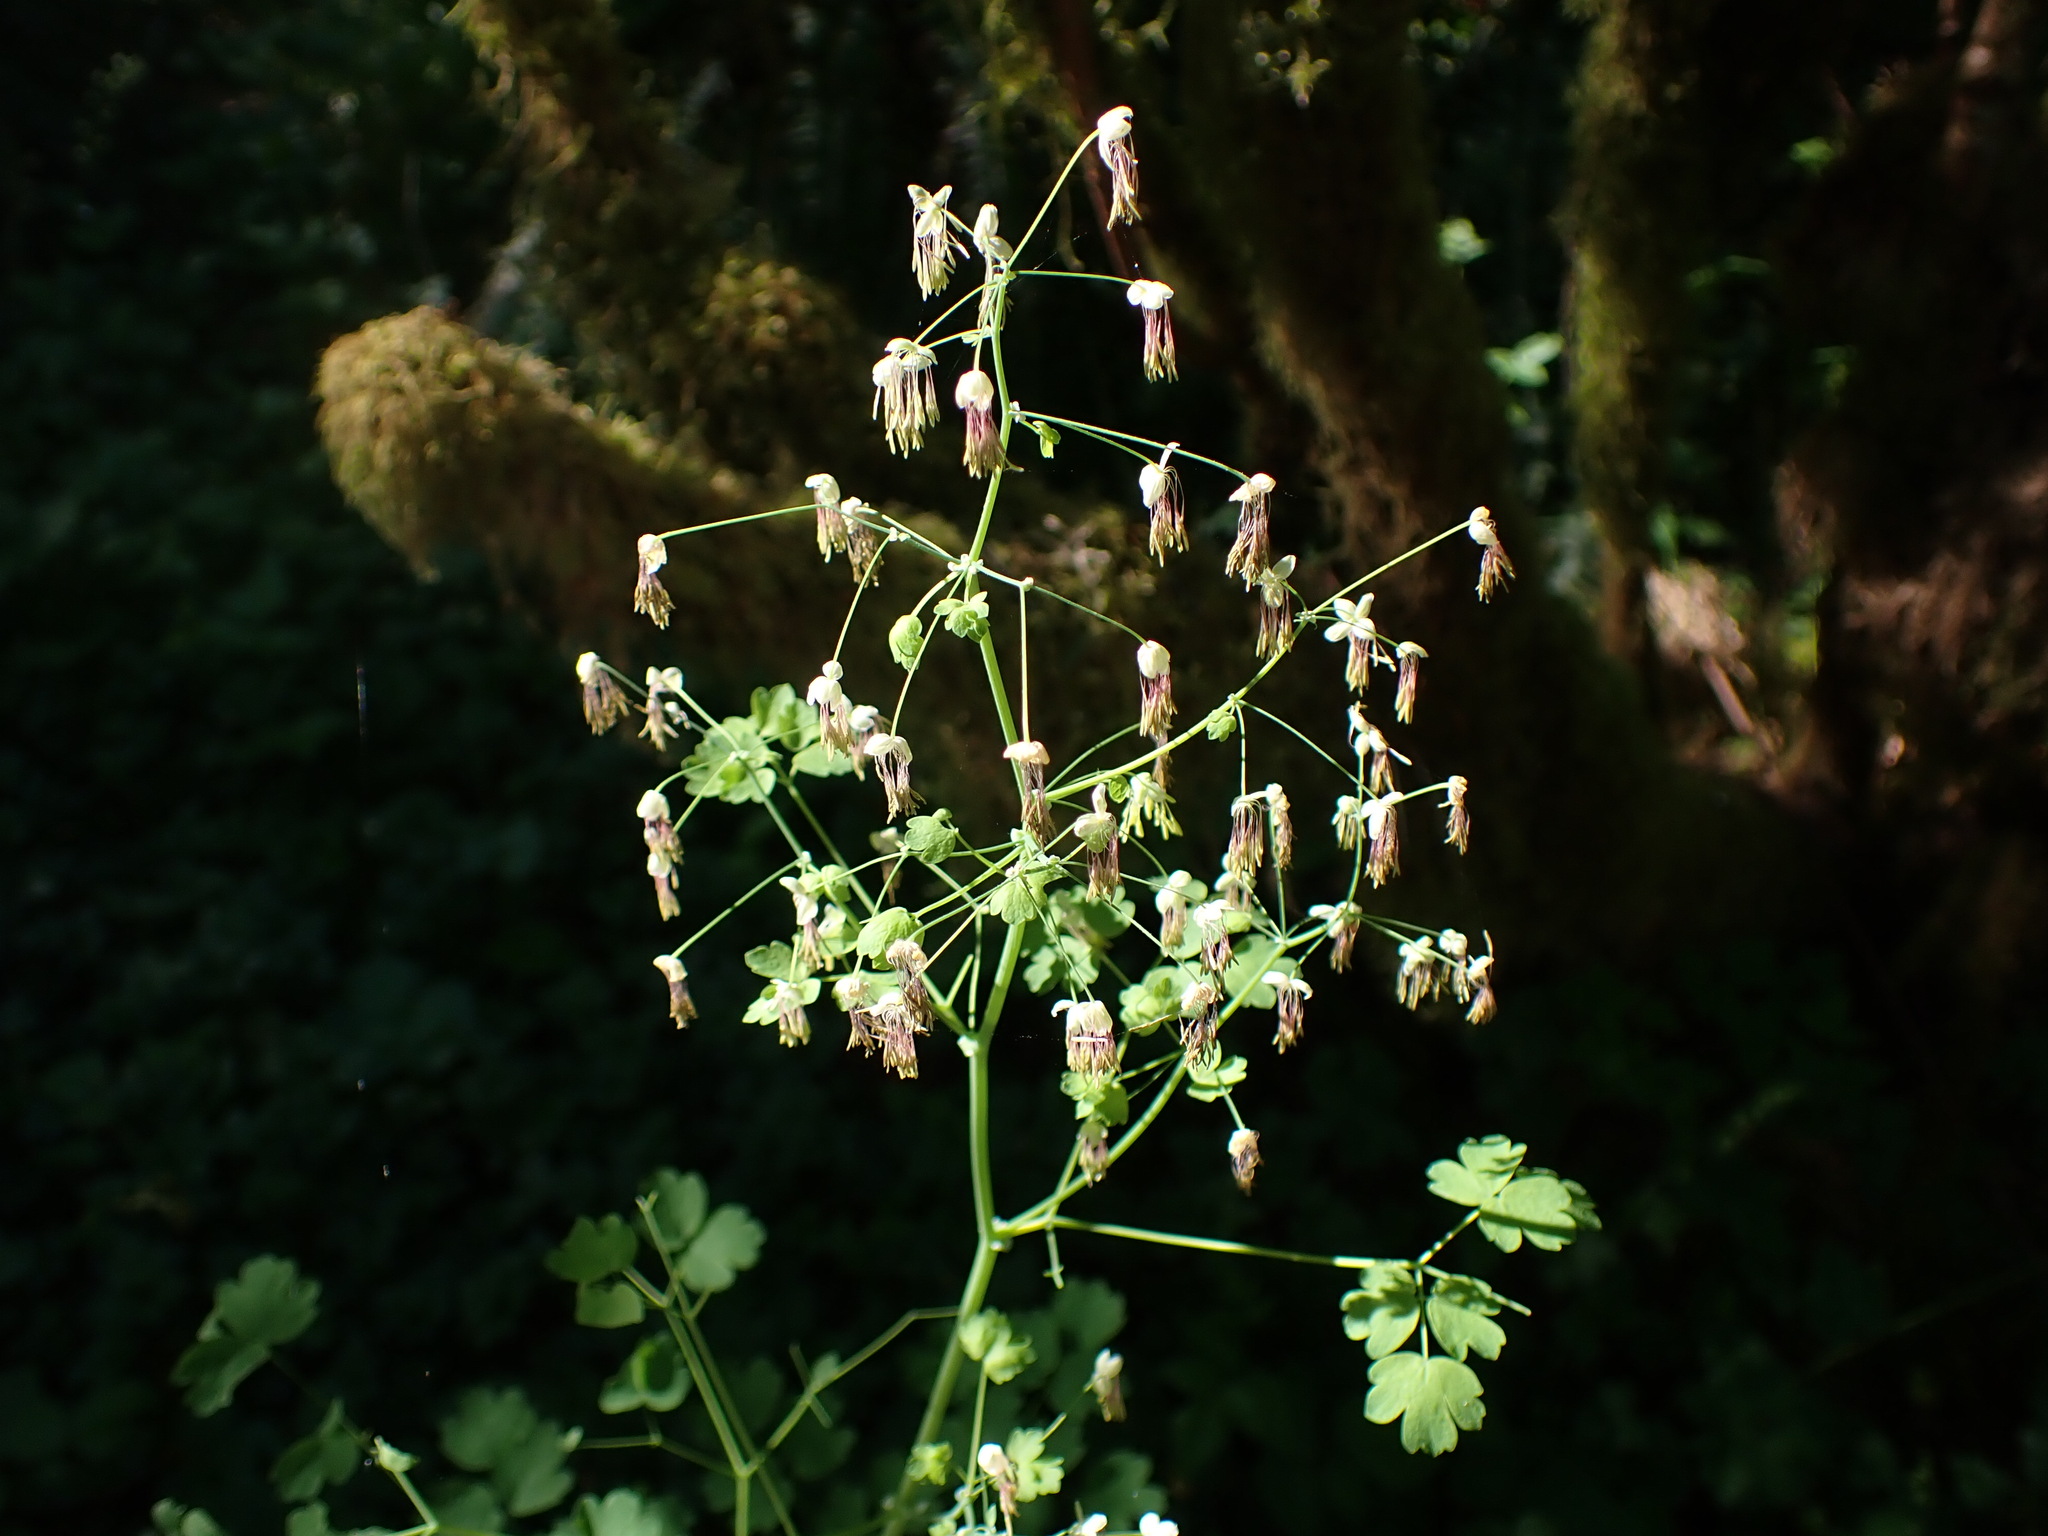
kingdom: Plantae
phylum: Tracheophyta
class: Magnoliopsida
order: Ranunculales
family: Ranunculaceae
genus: Thalictrum
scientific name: Thalictrum occidentale
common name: Western meadow-rue
